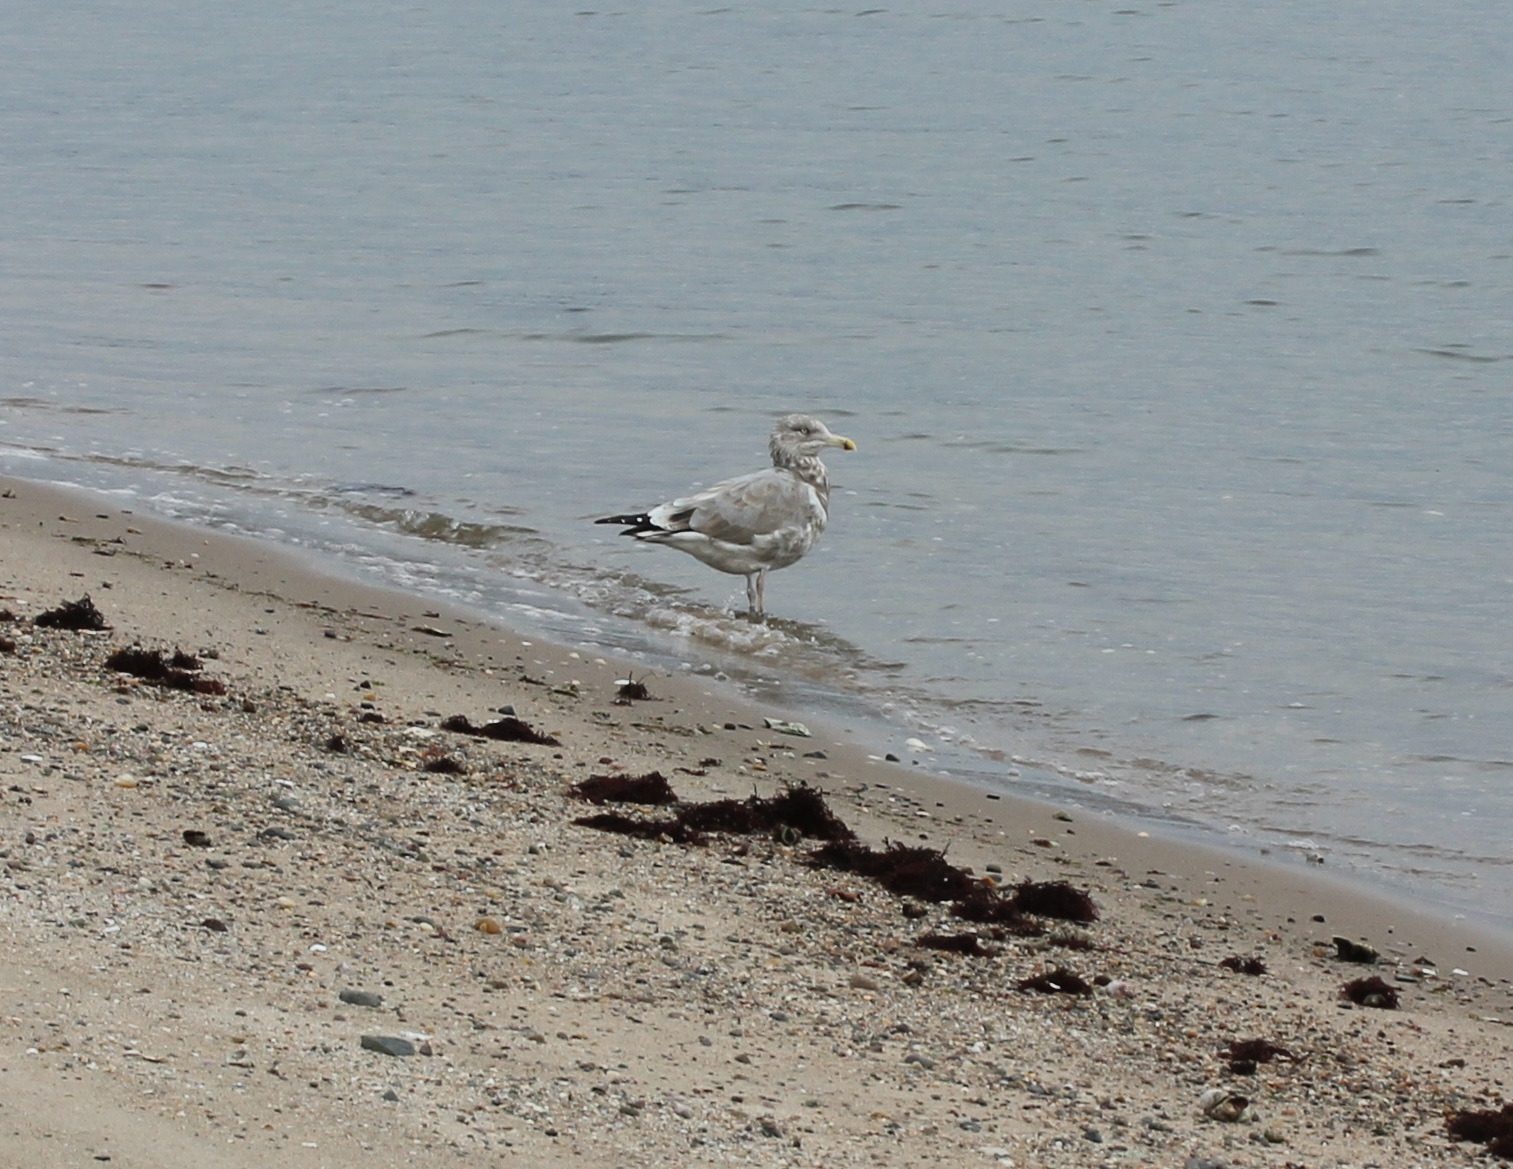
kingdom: Animalia
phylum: Chordata
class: Aves
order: Charadriiformes
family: Laridae
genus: Larus
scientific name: Larus argentatus
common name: Herring gull
